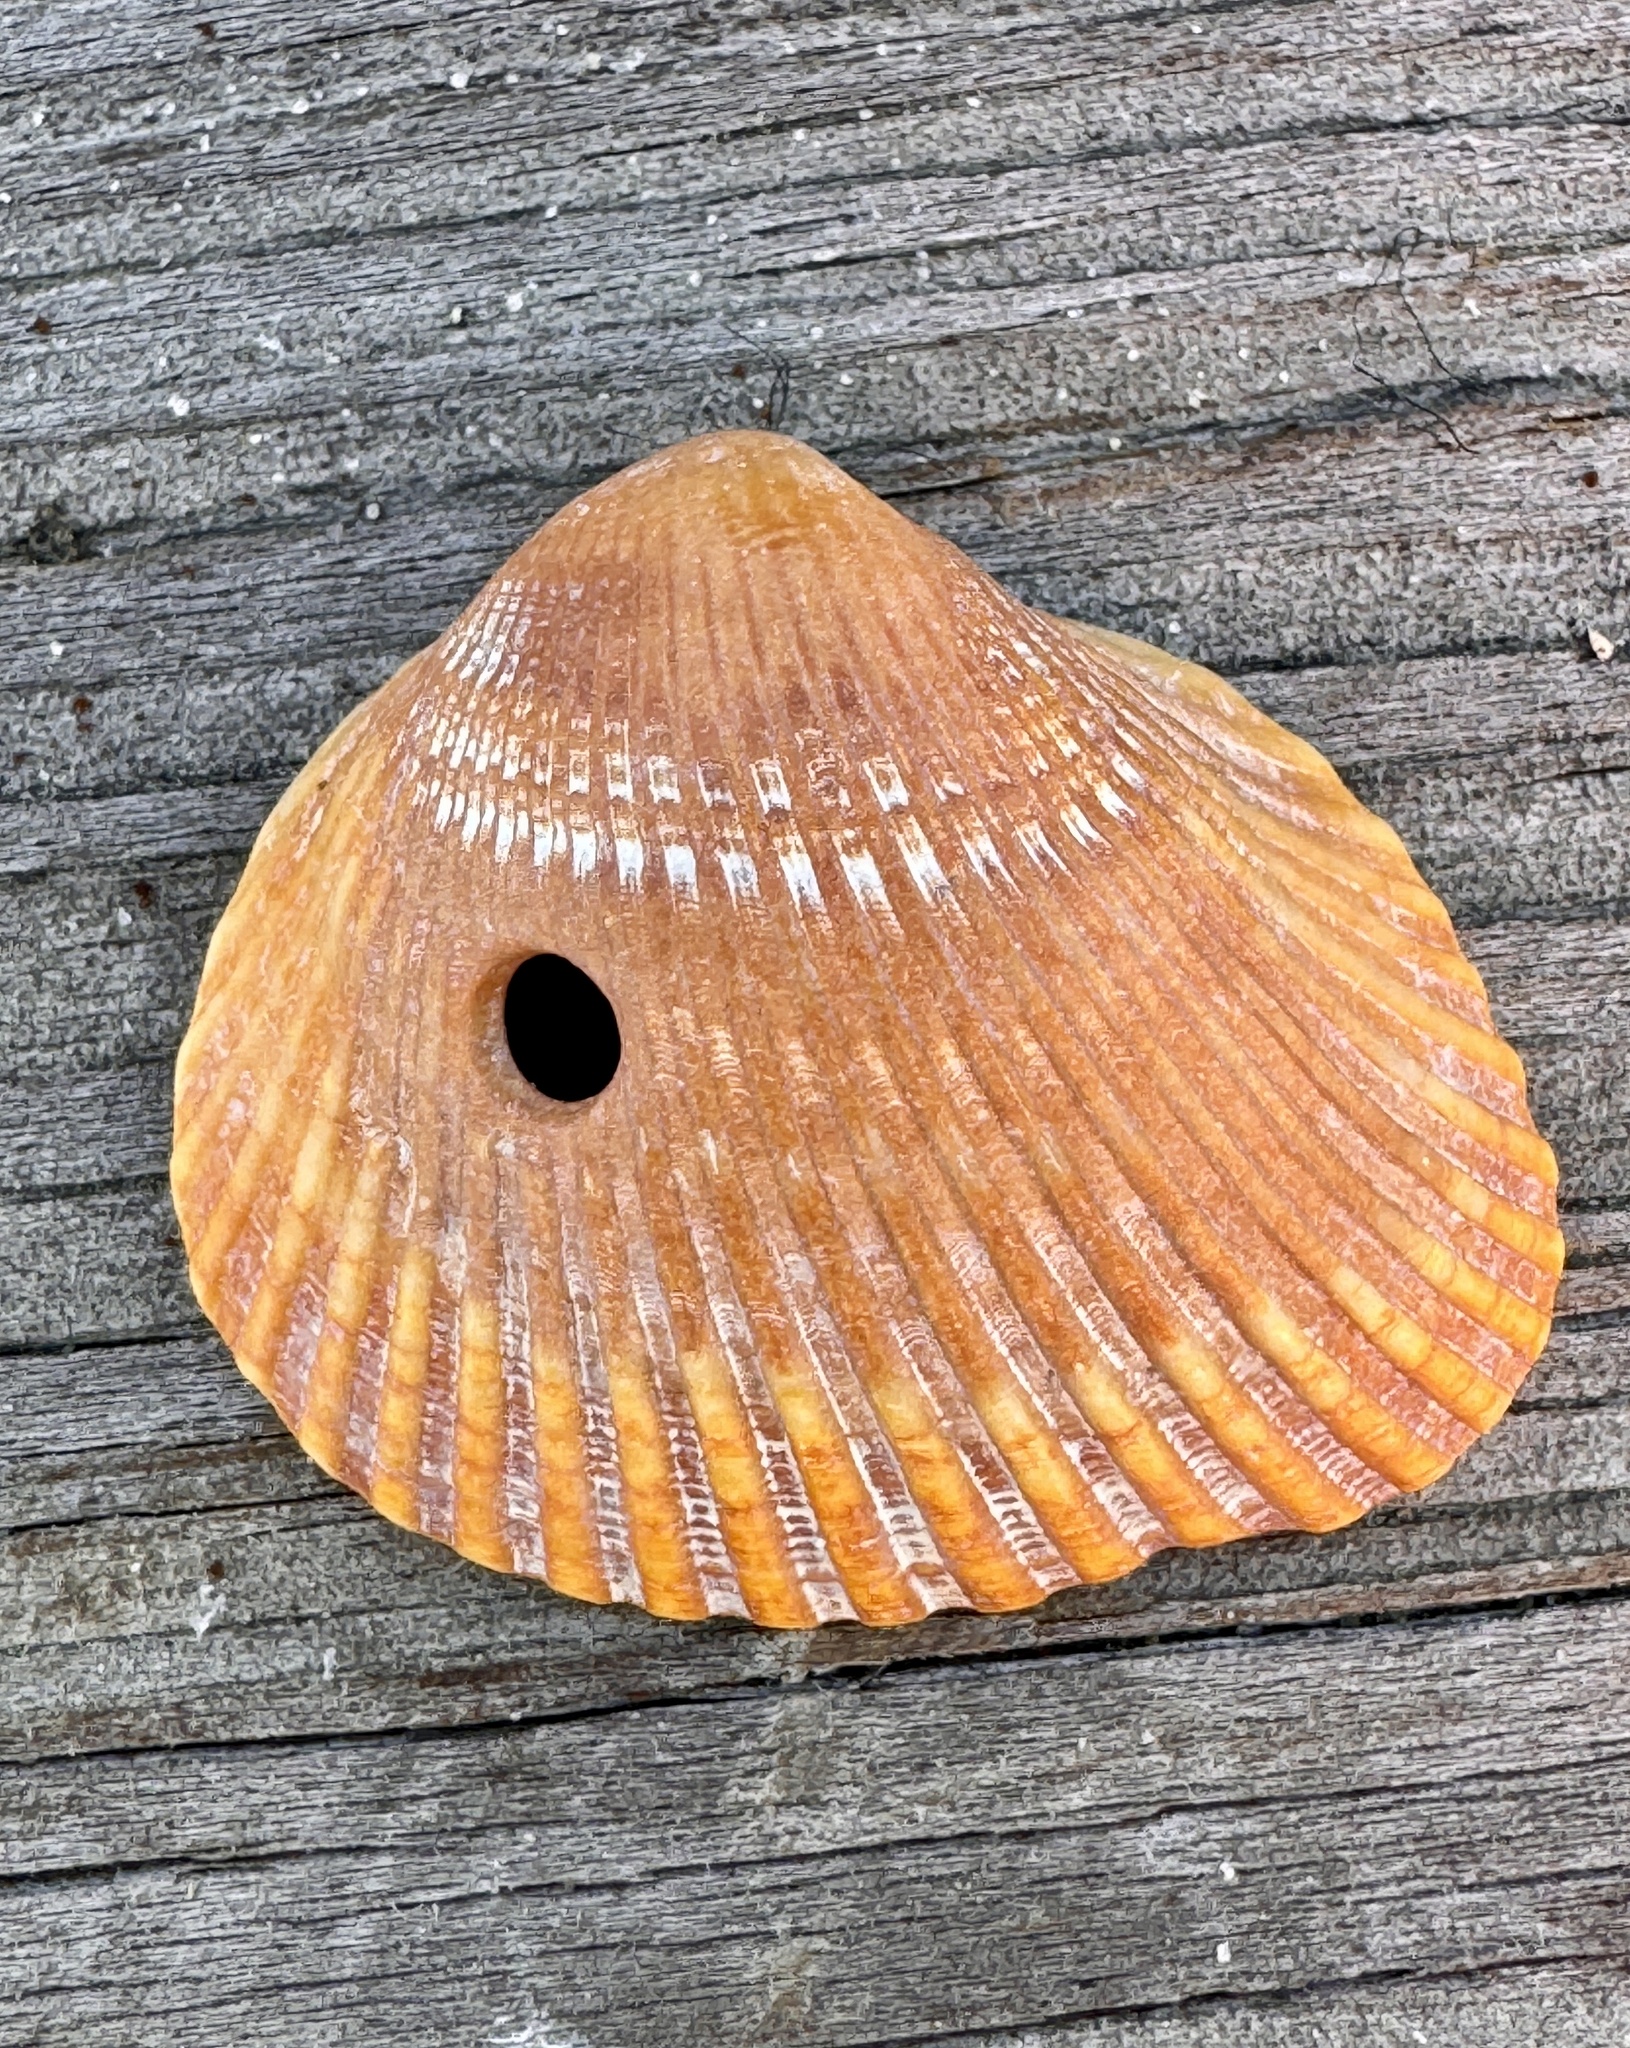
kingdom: Animalia
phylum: Mollusca
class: Bivalvia
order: Arcida
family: Noetiidae
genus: Noetia
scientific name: Noetia ponderosa
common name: Ponderous ark
